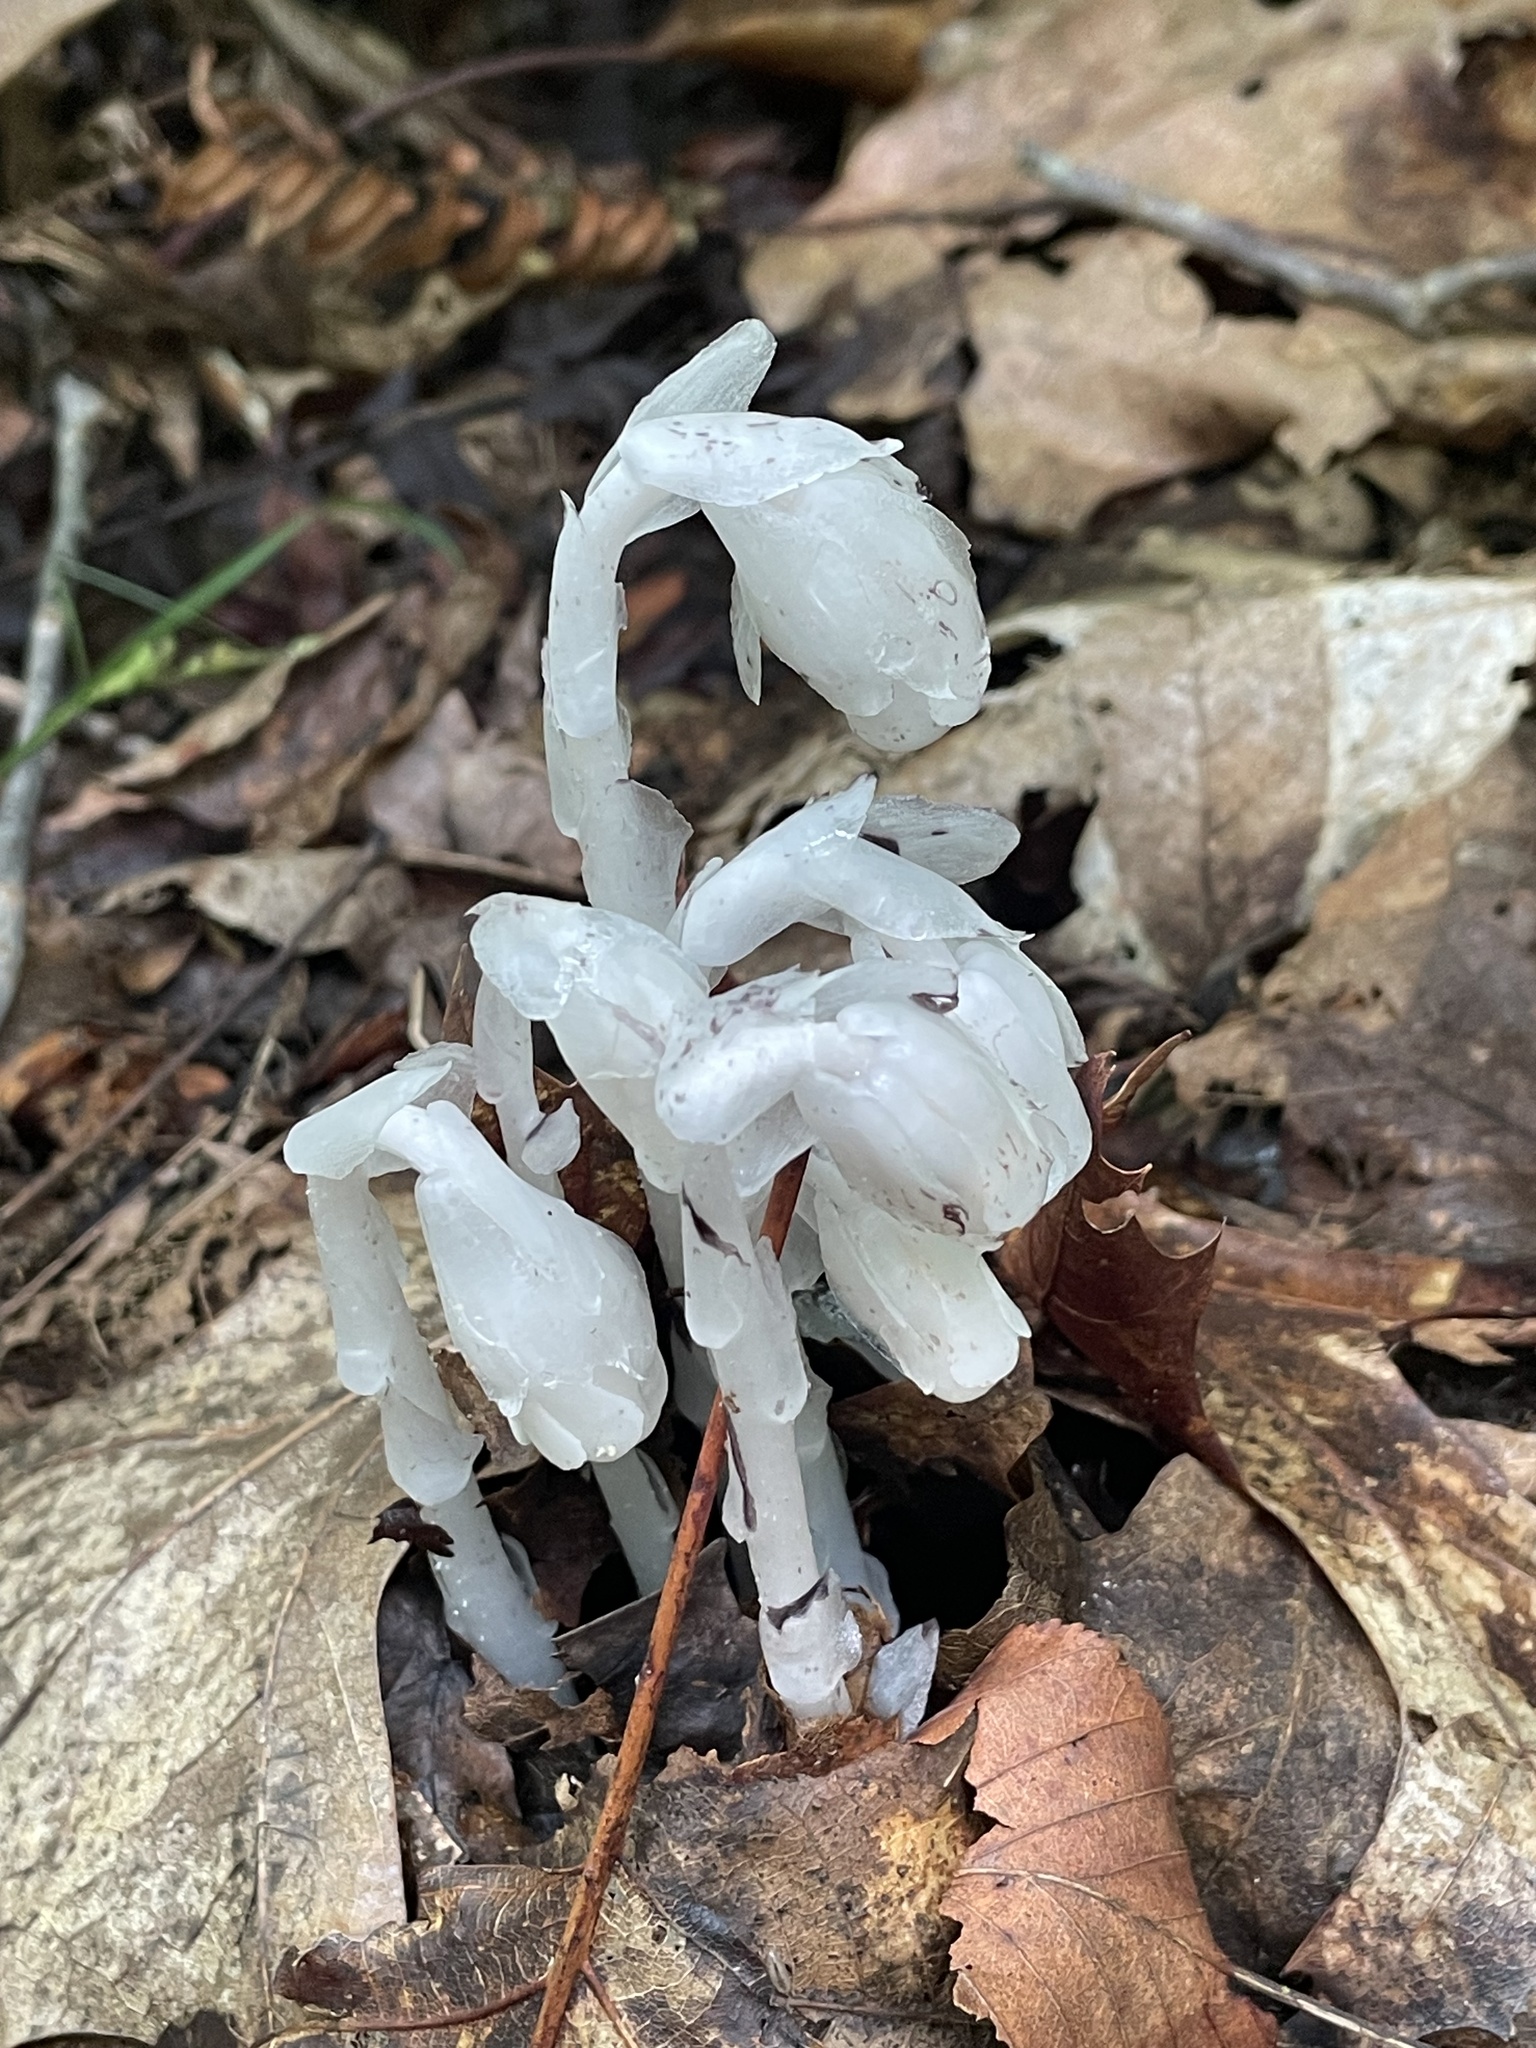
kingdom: Plantae
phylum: Tracheophyta
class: Magnoliopsida
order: Ericales
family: Ericaceae
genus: Monotropa
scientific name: Monotropa uniflora
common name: Convulsion root
